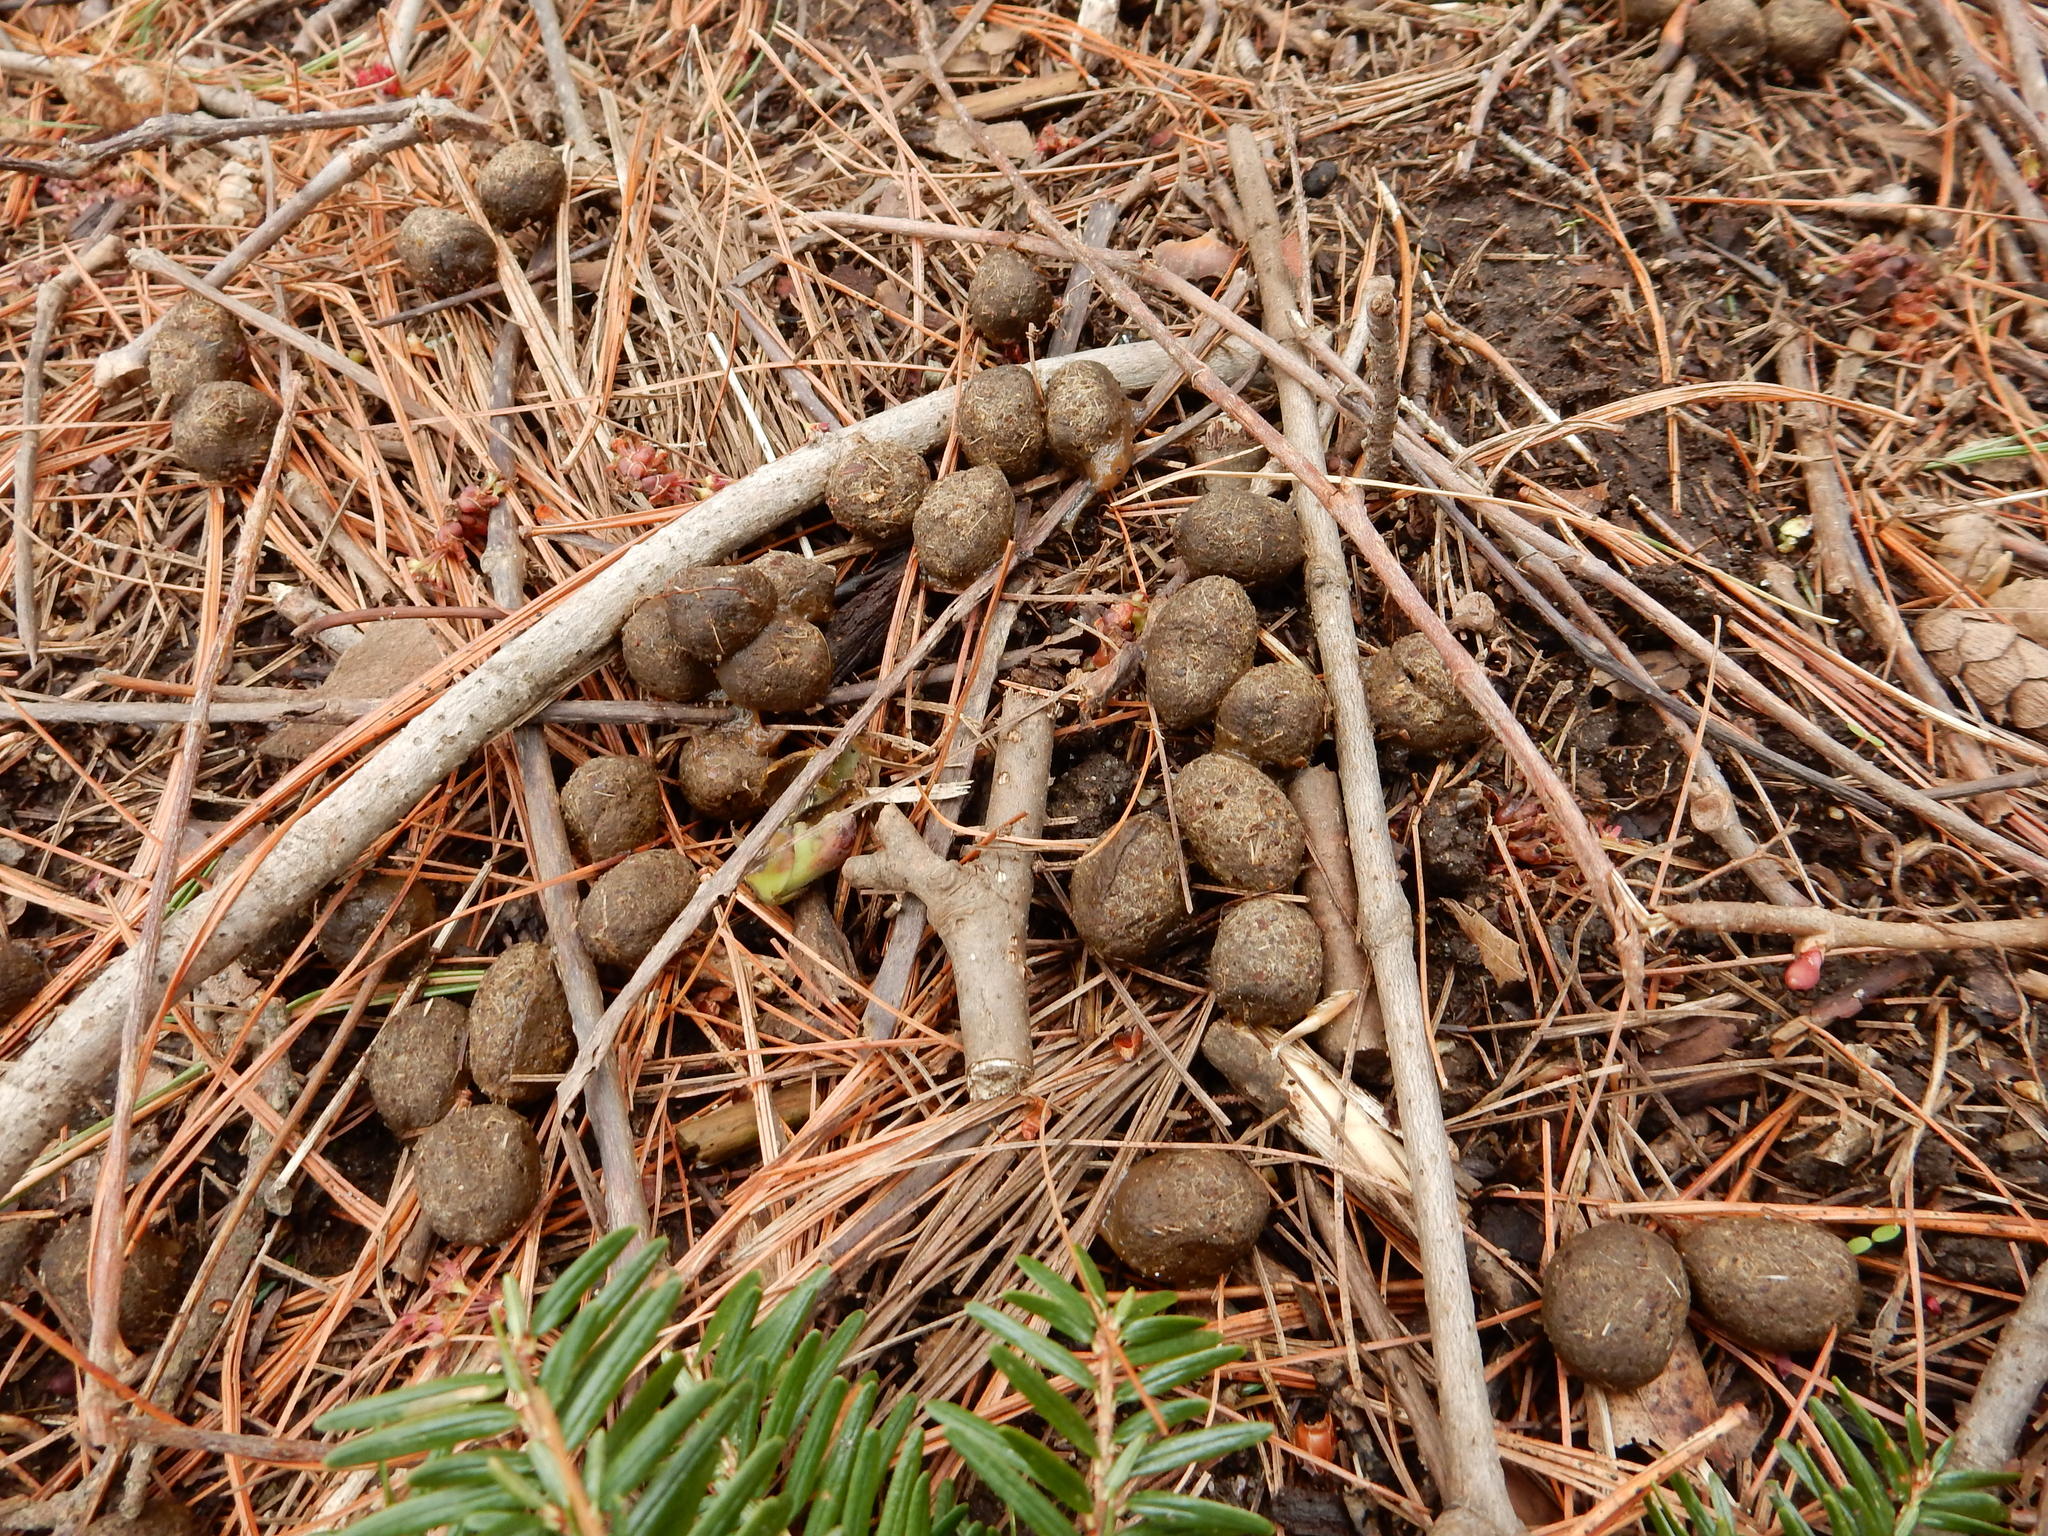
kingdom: Animalia
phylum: Chordata
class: Mammalia
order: Artiodactyla
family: Cervidae
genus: Odocoileus
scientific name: Odocoileus virginianus
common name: White-tailed deer
